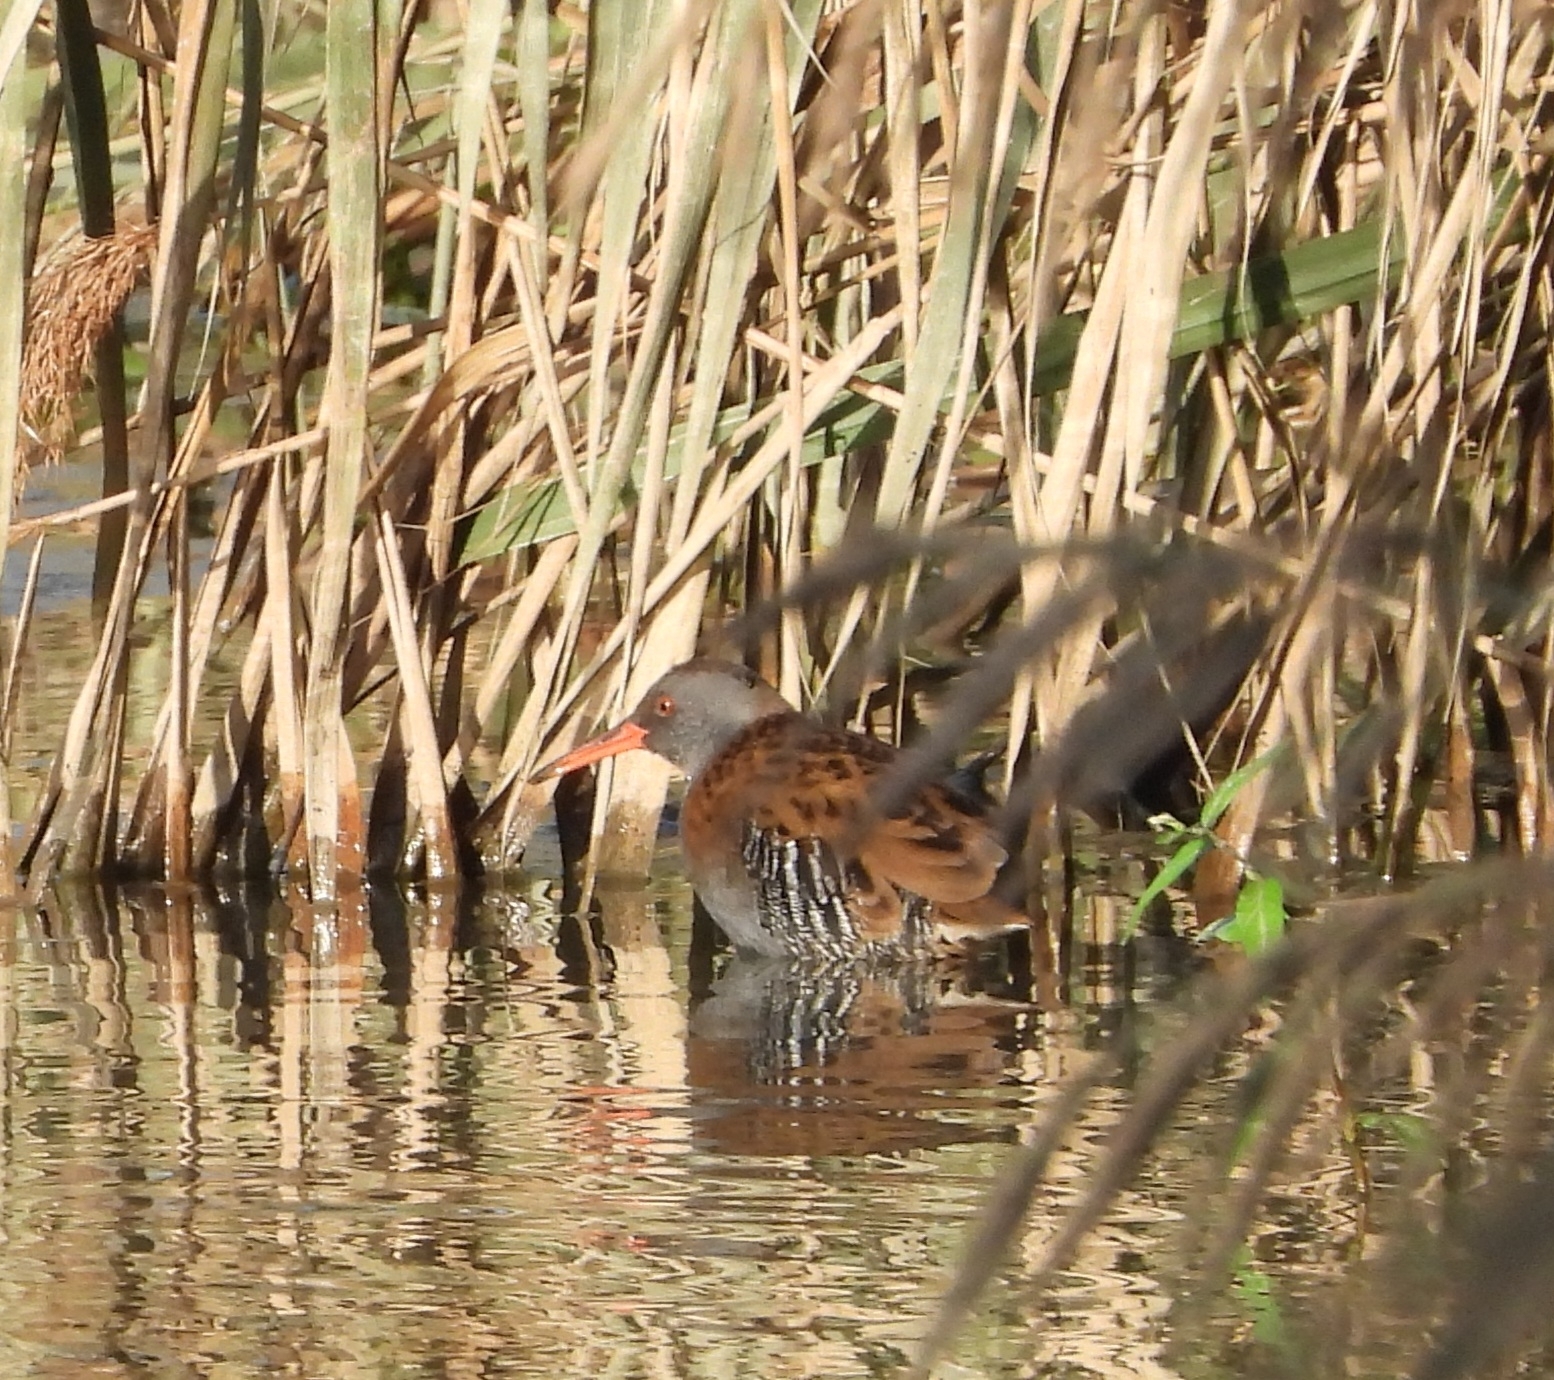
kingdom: Animalia
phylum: Chordata
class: Aves
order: Gruiformes
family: Rallidae
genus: Rallus
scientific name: Rallus aquaticus
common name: Water rail
